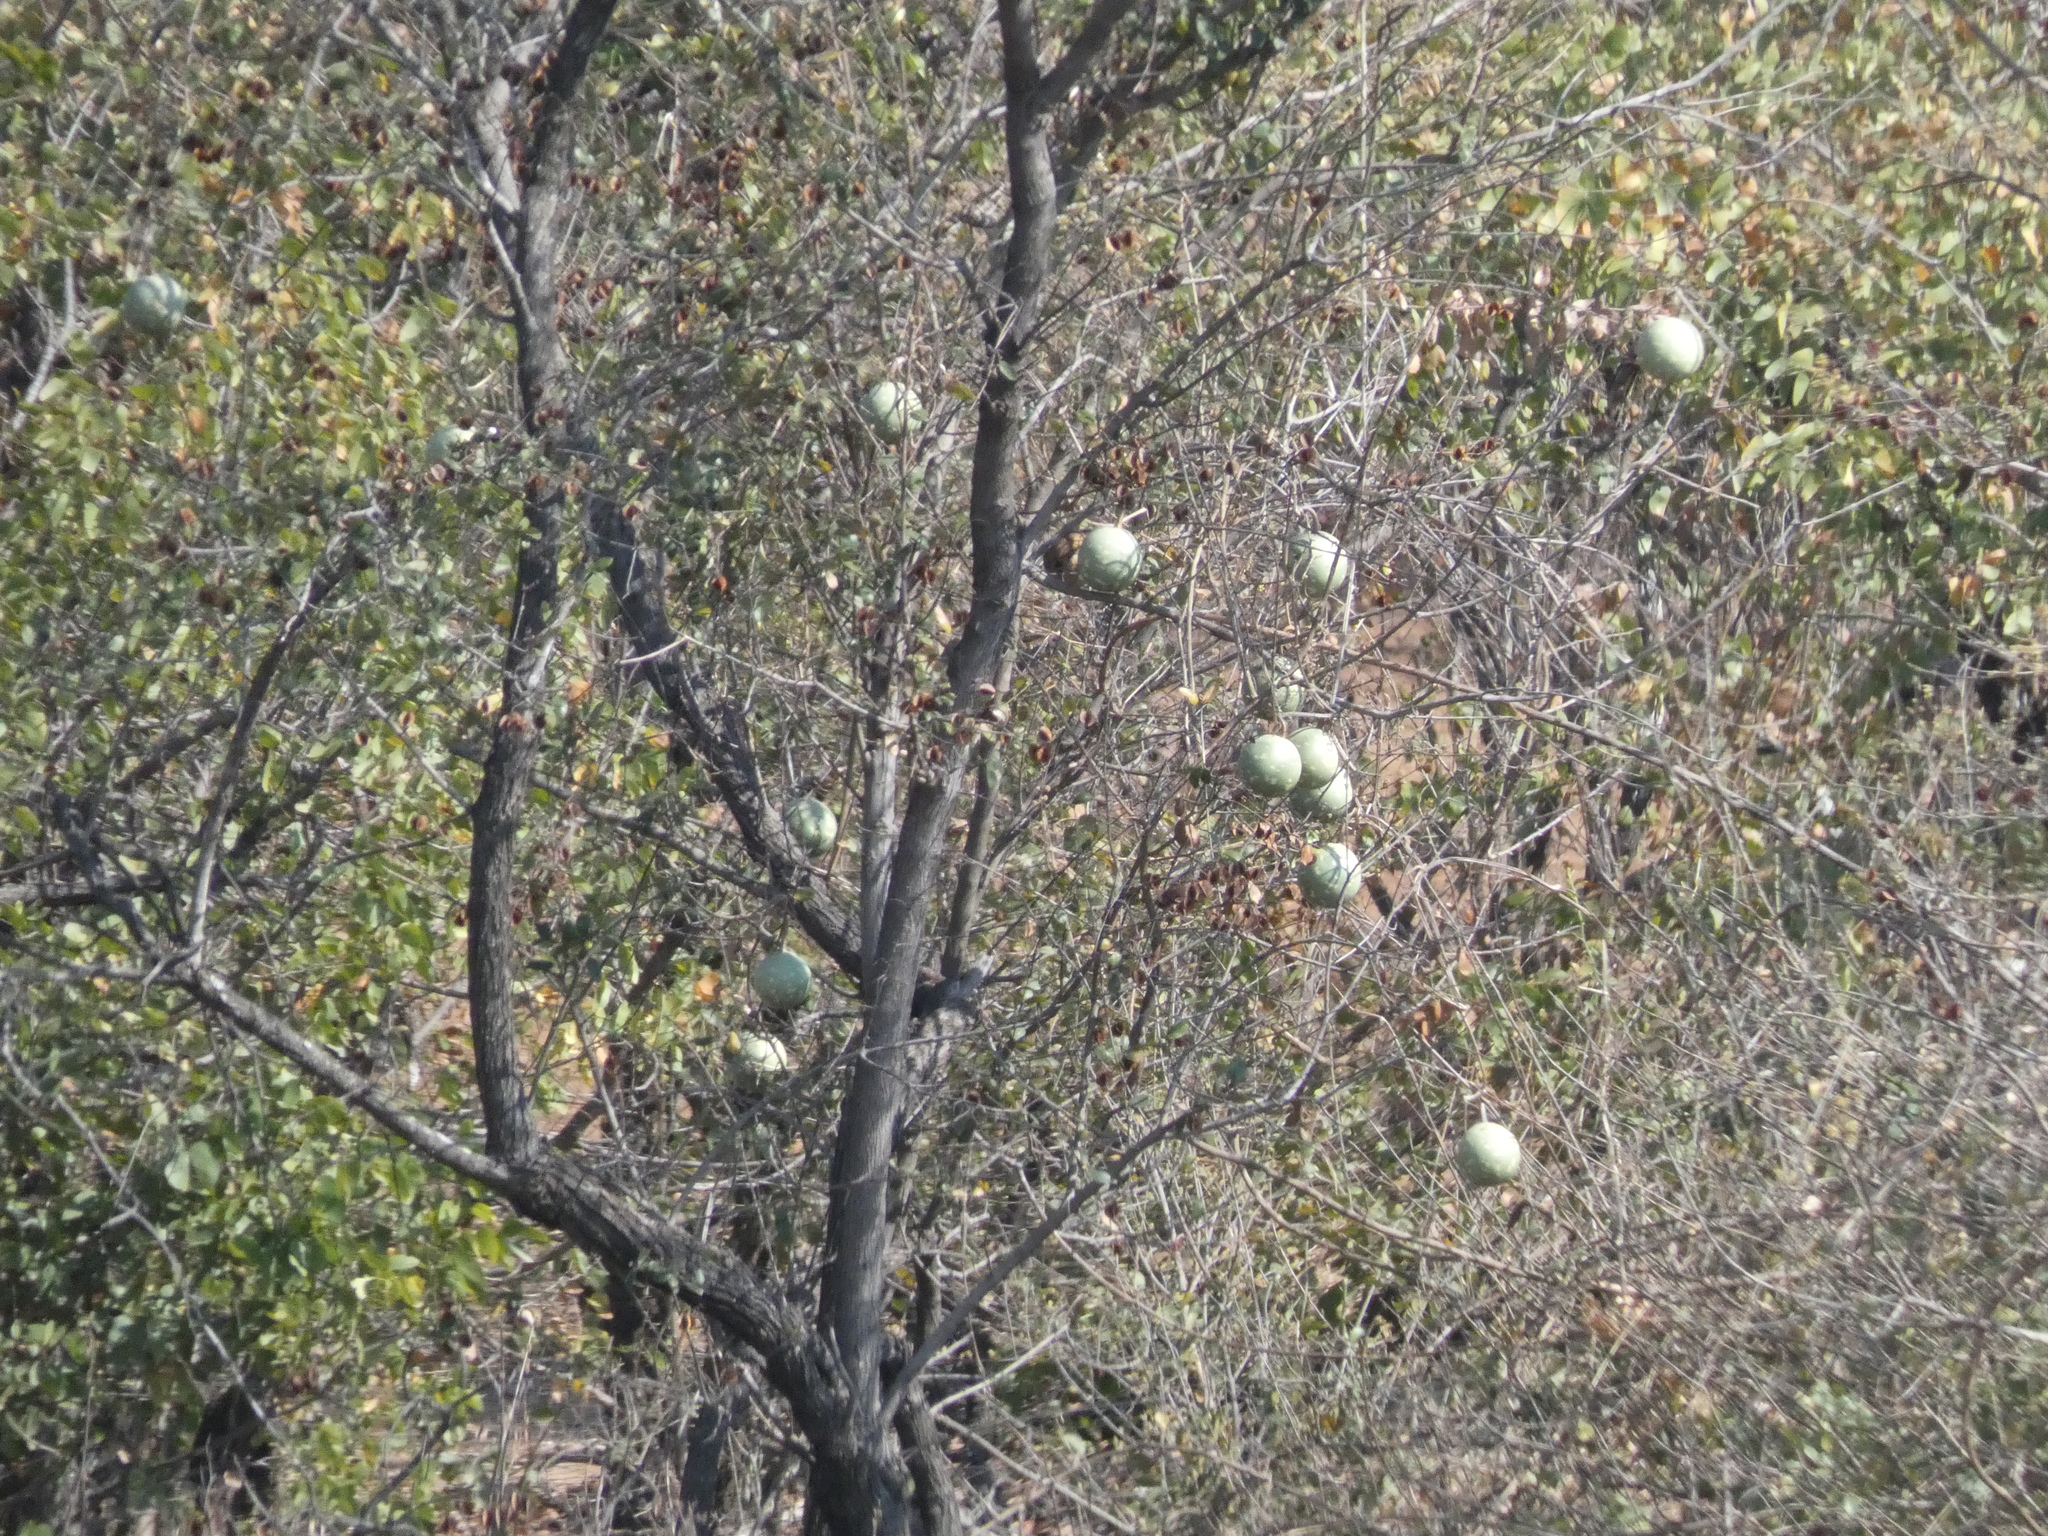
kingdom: Plantae
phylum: Tracheophyta
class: Magnoliopsida
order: Cucurbitales
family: Cucurbitaceae
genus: Lagenaria
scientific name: Lagenaria sphaerica
